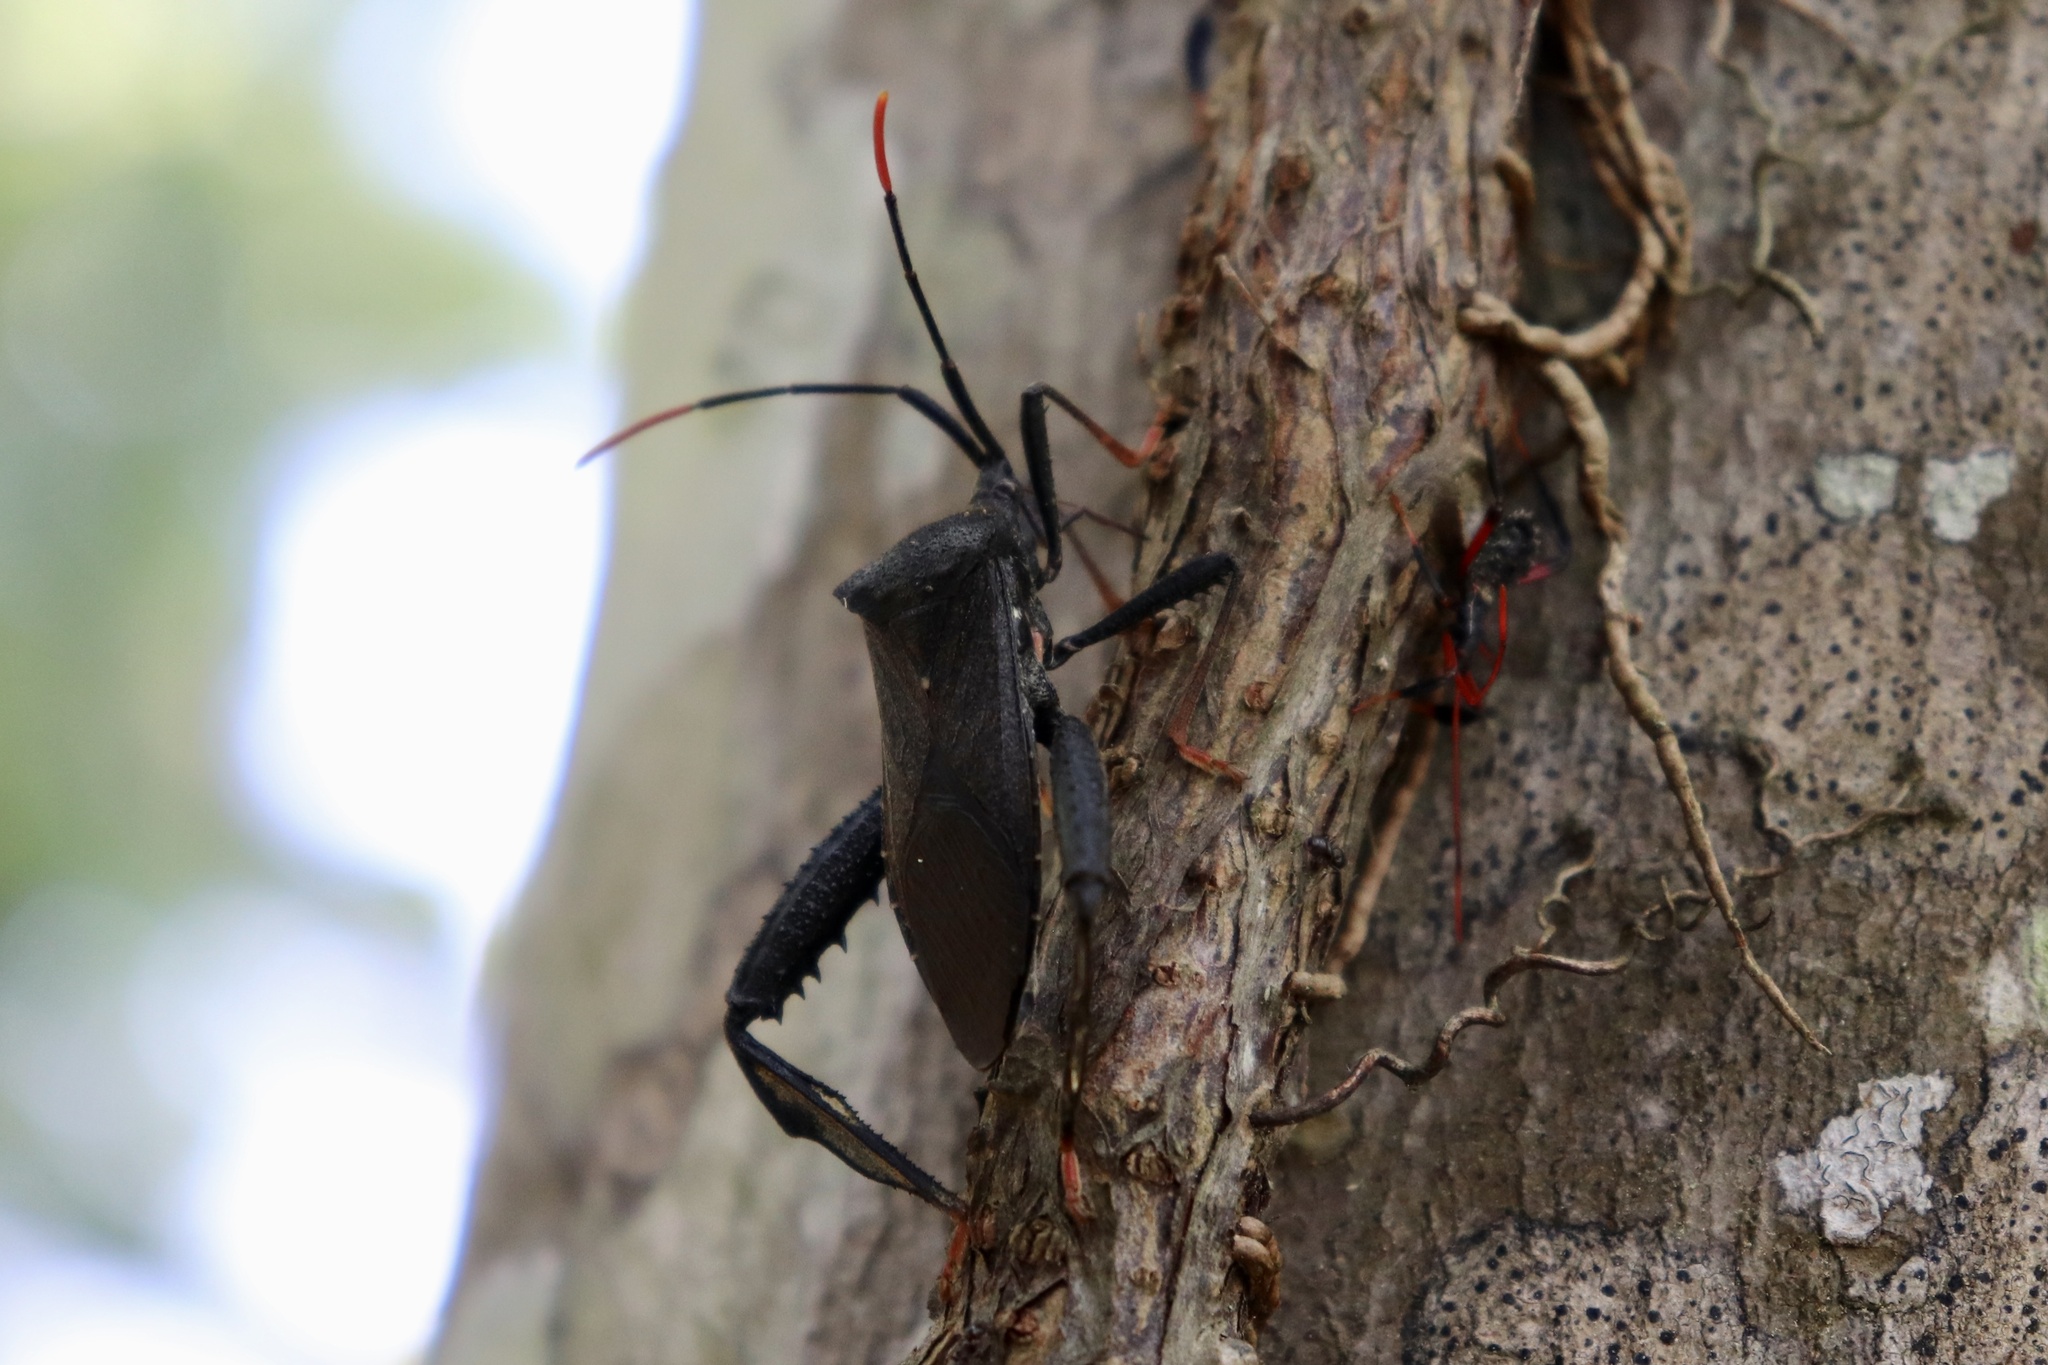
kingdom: Animalia
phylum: Arthropoda
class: Insecta
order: Hemiptera
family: Coreidae
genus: Acanthocephala
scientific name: Acanthocephala terminalis
